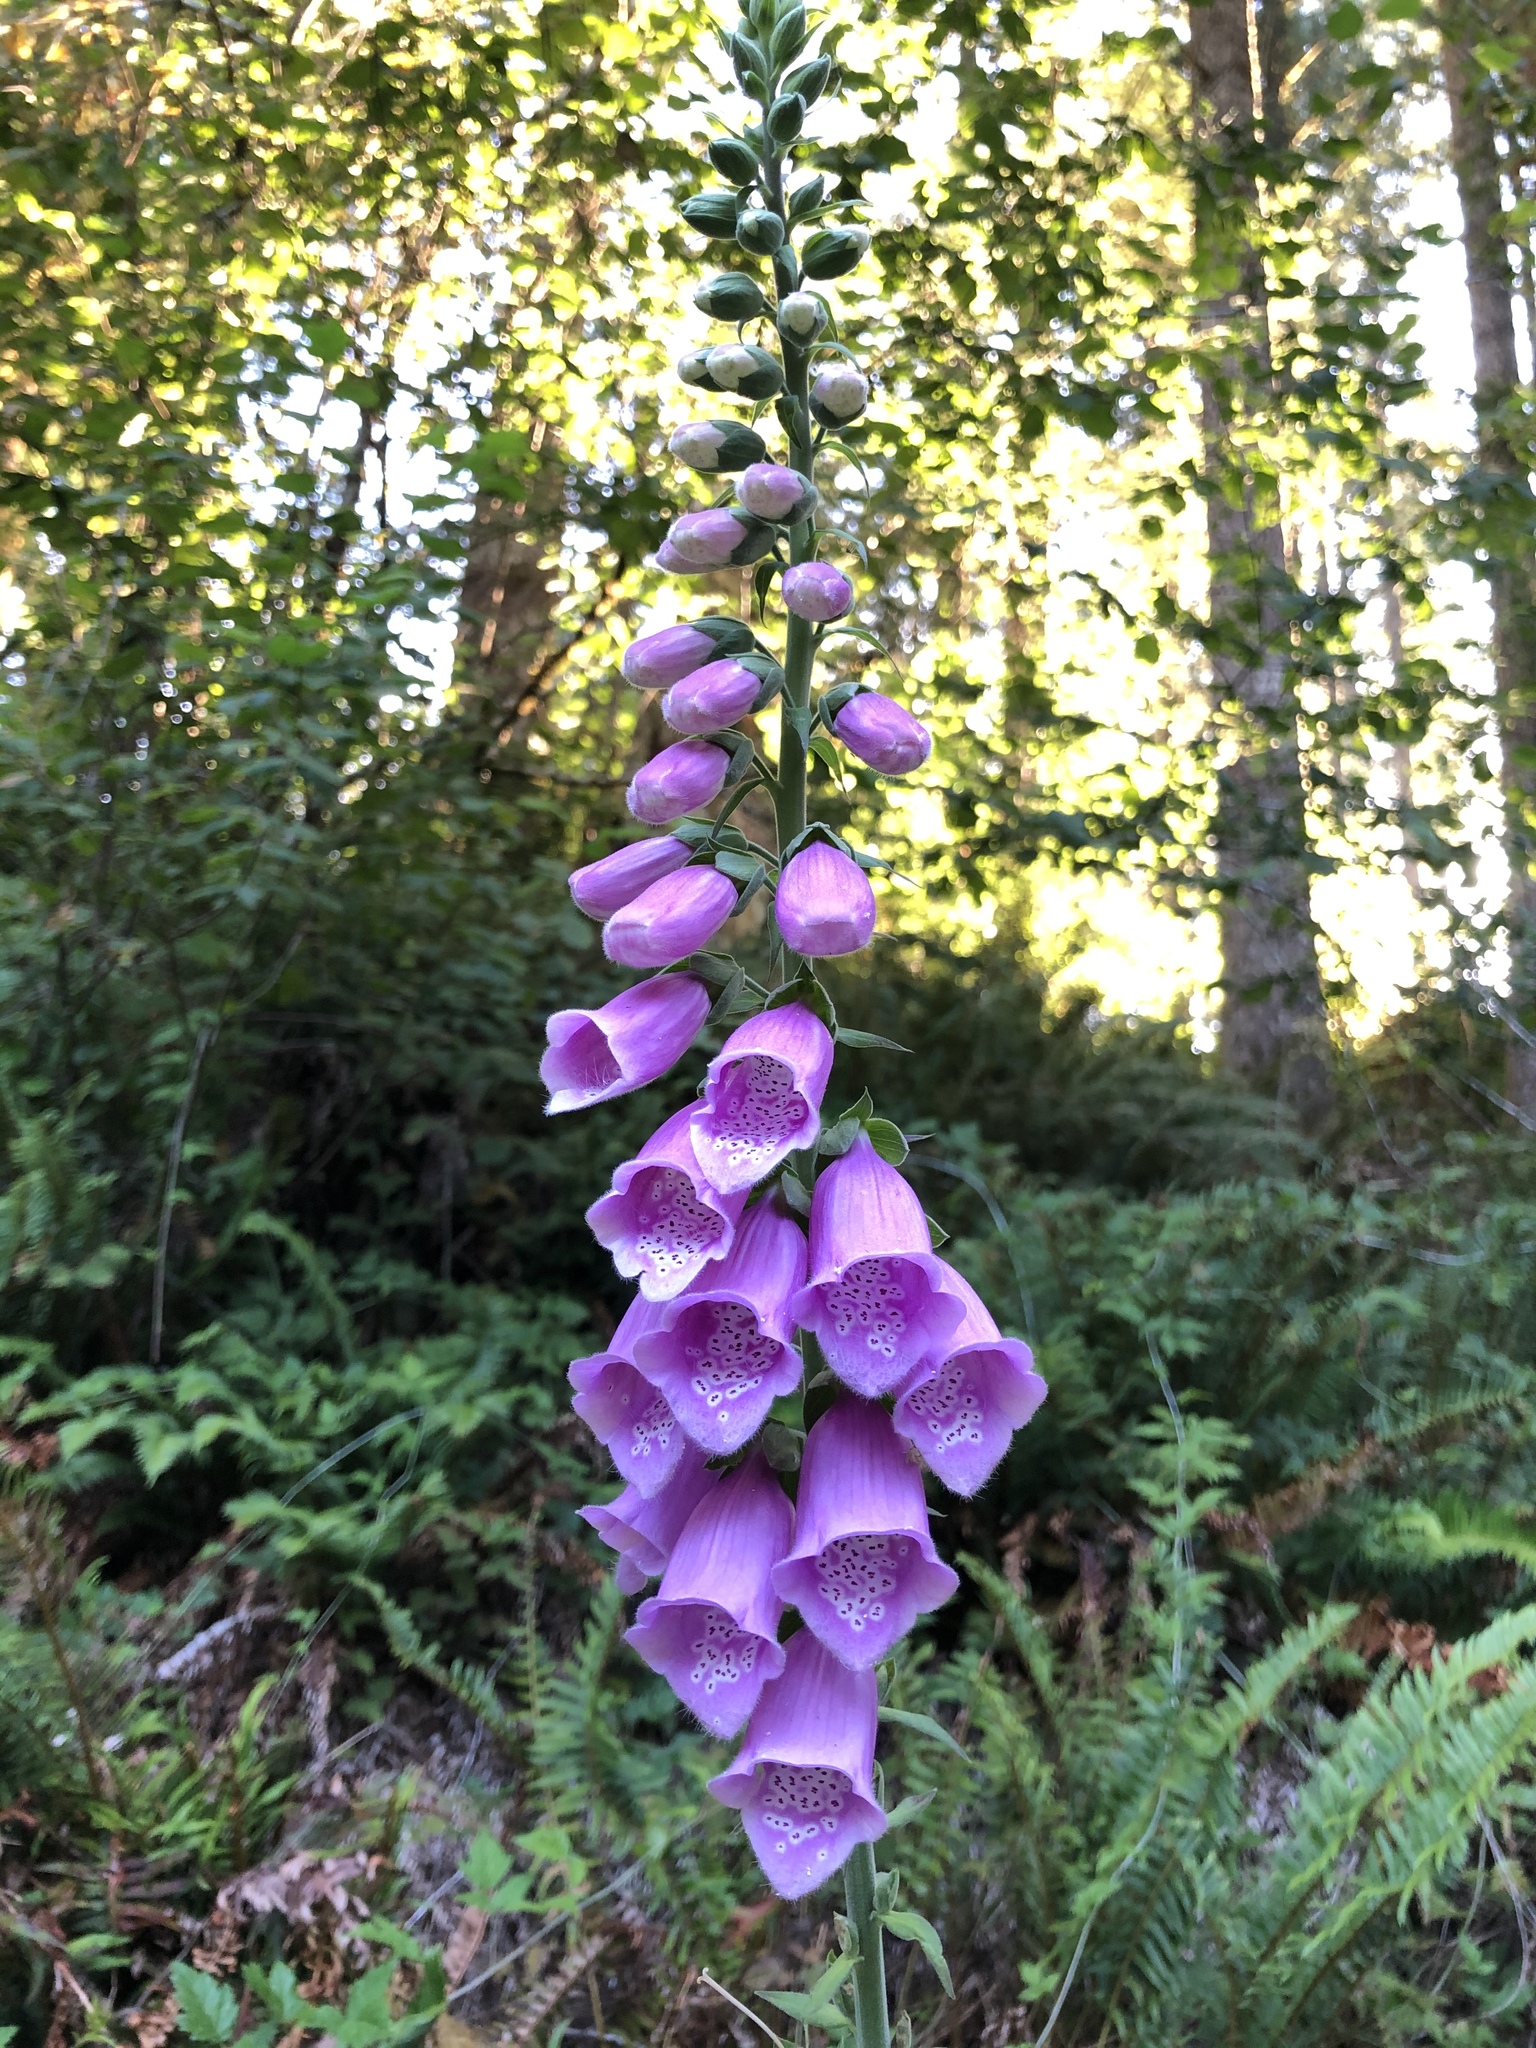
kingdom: Plantae
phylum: Tracheophyta
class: Magnoliopsida
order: Lamiales
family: Plantaginaceae
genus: Digitalis
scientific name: Digitalis purpurea
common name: Foxglove
